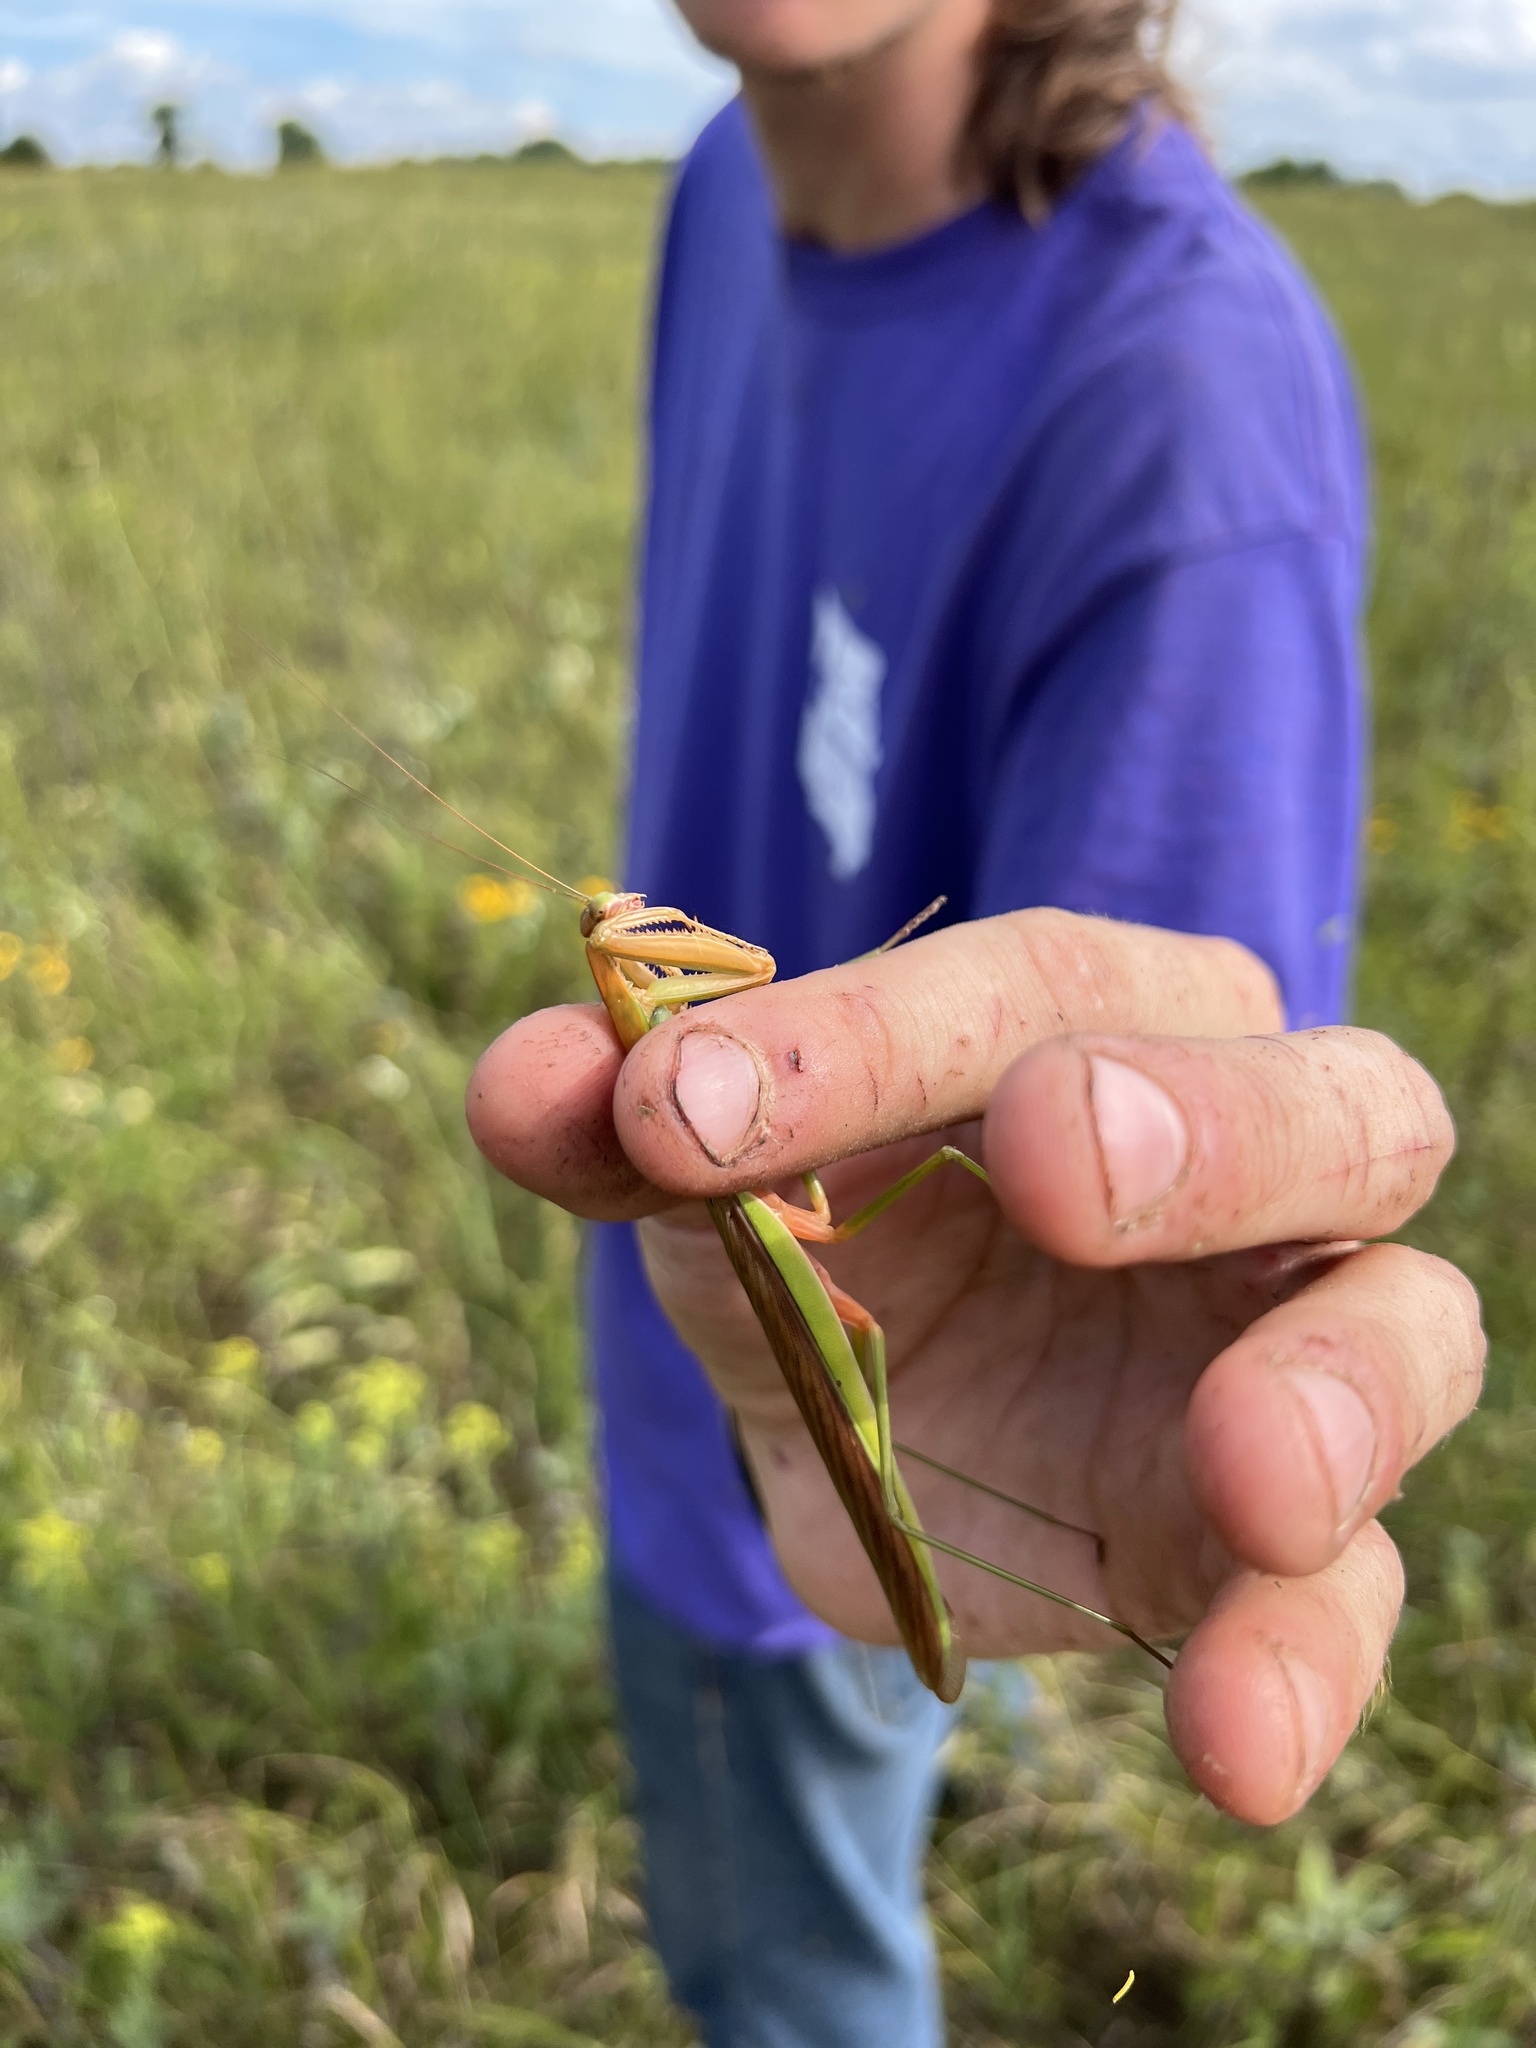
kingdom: Animalia
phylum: Arthropoda
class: Insecta
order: Mantodea
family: Mantidae
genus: Tenodera
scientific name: Tenodera sinensis
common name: Chinese mantis
